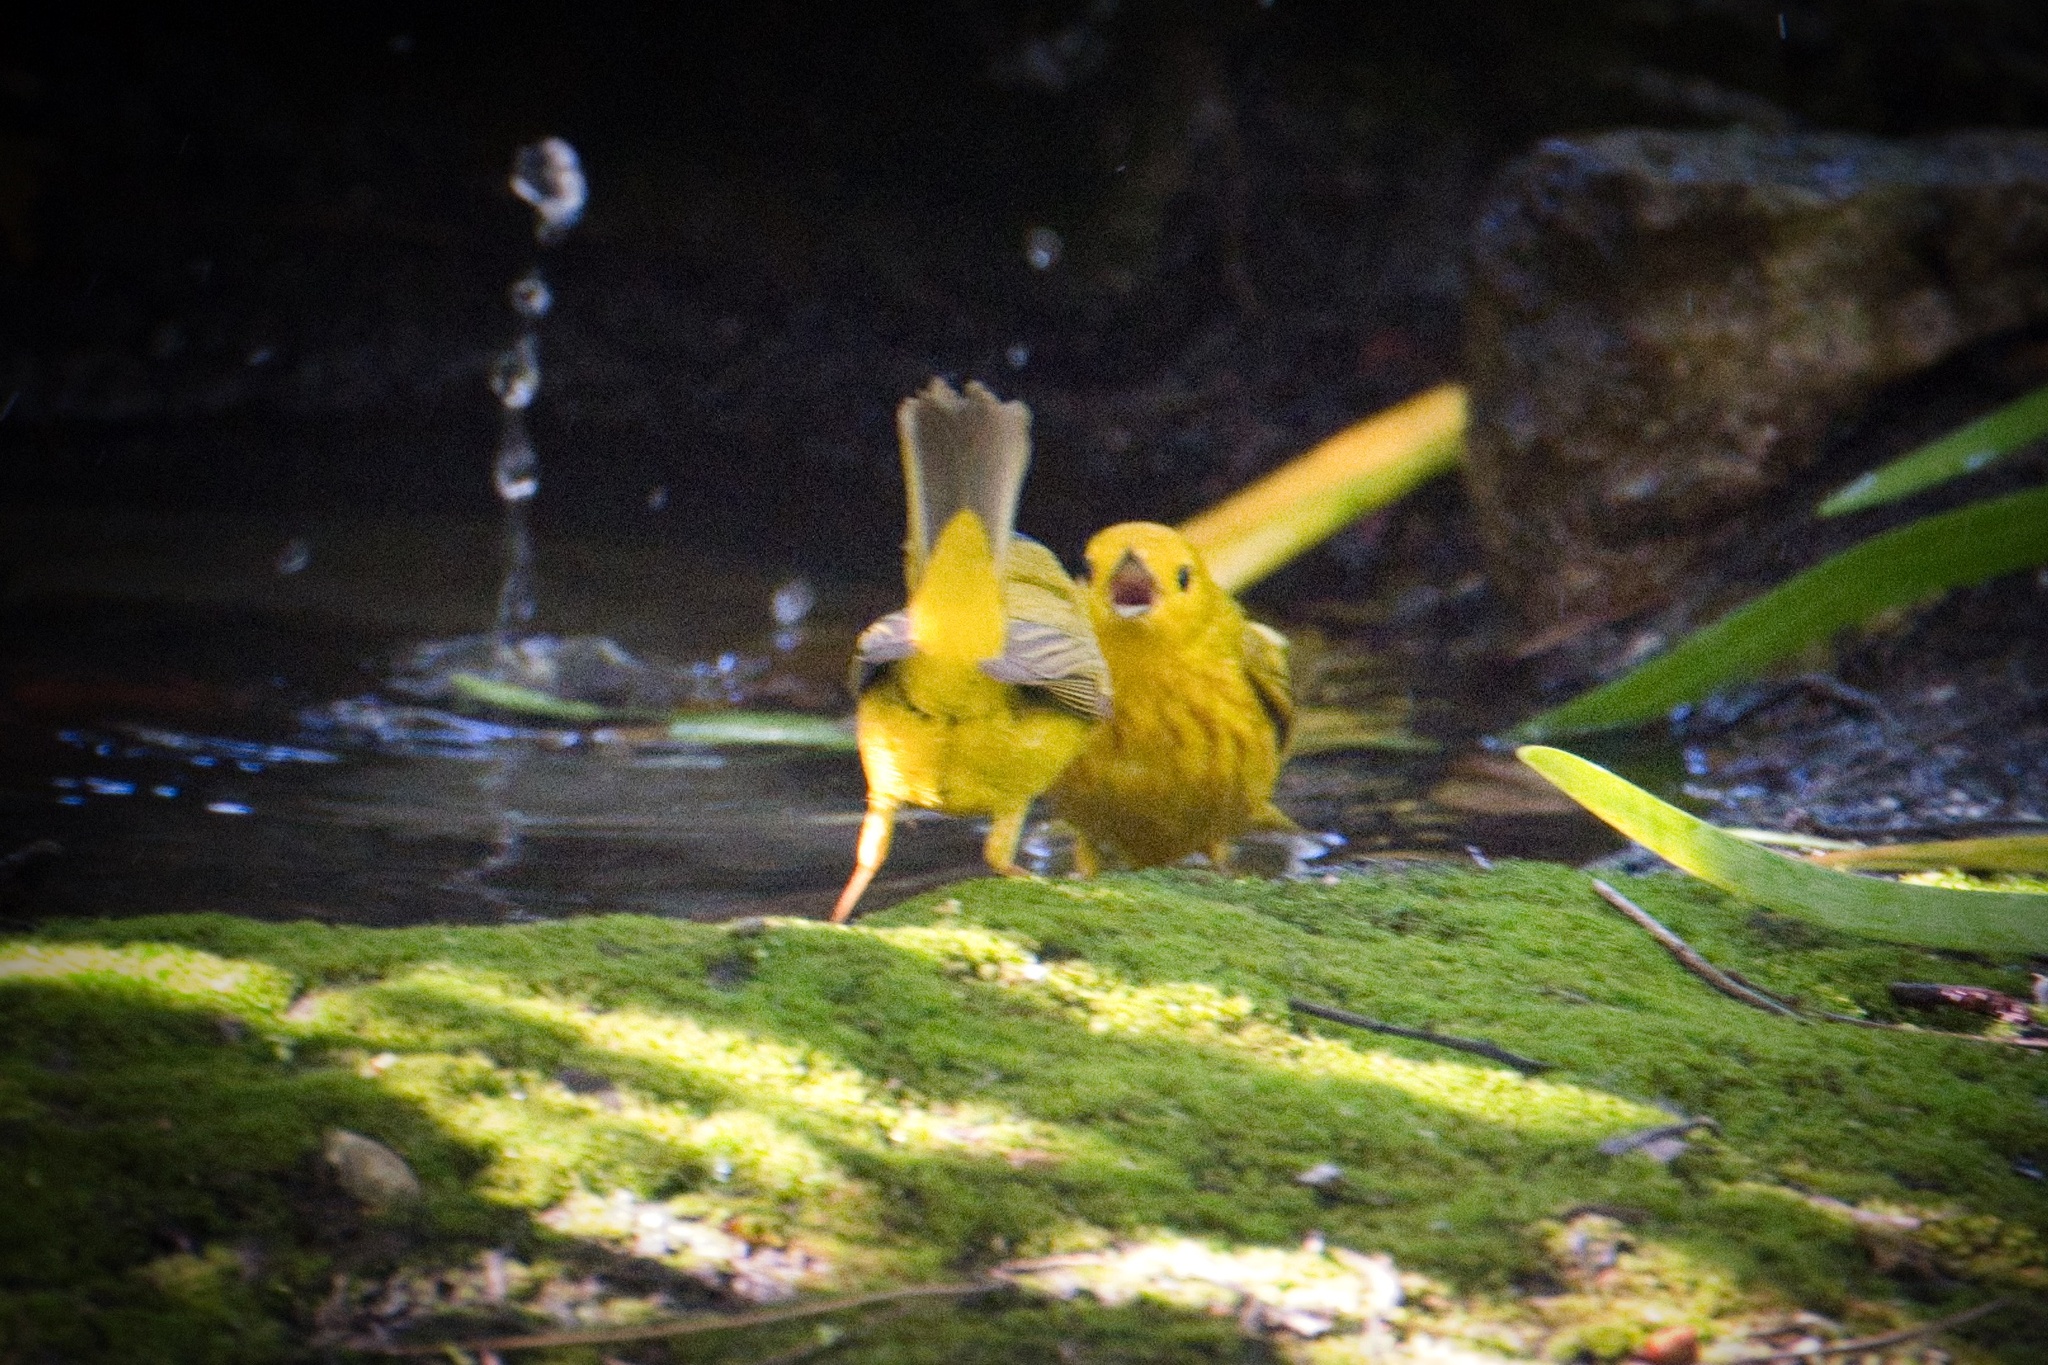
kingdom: Animalia
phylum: Chordata
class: Aves
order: Passeriformes
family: Parulidae
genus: Setophaga
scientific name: Setophaga petechia
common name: Yellow warbler
